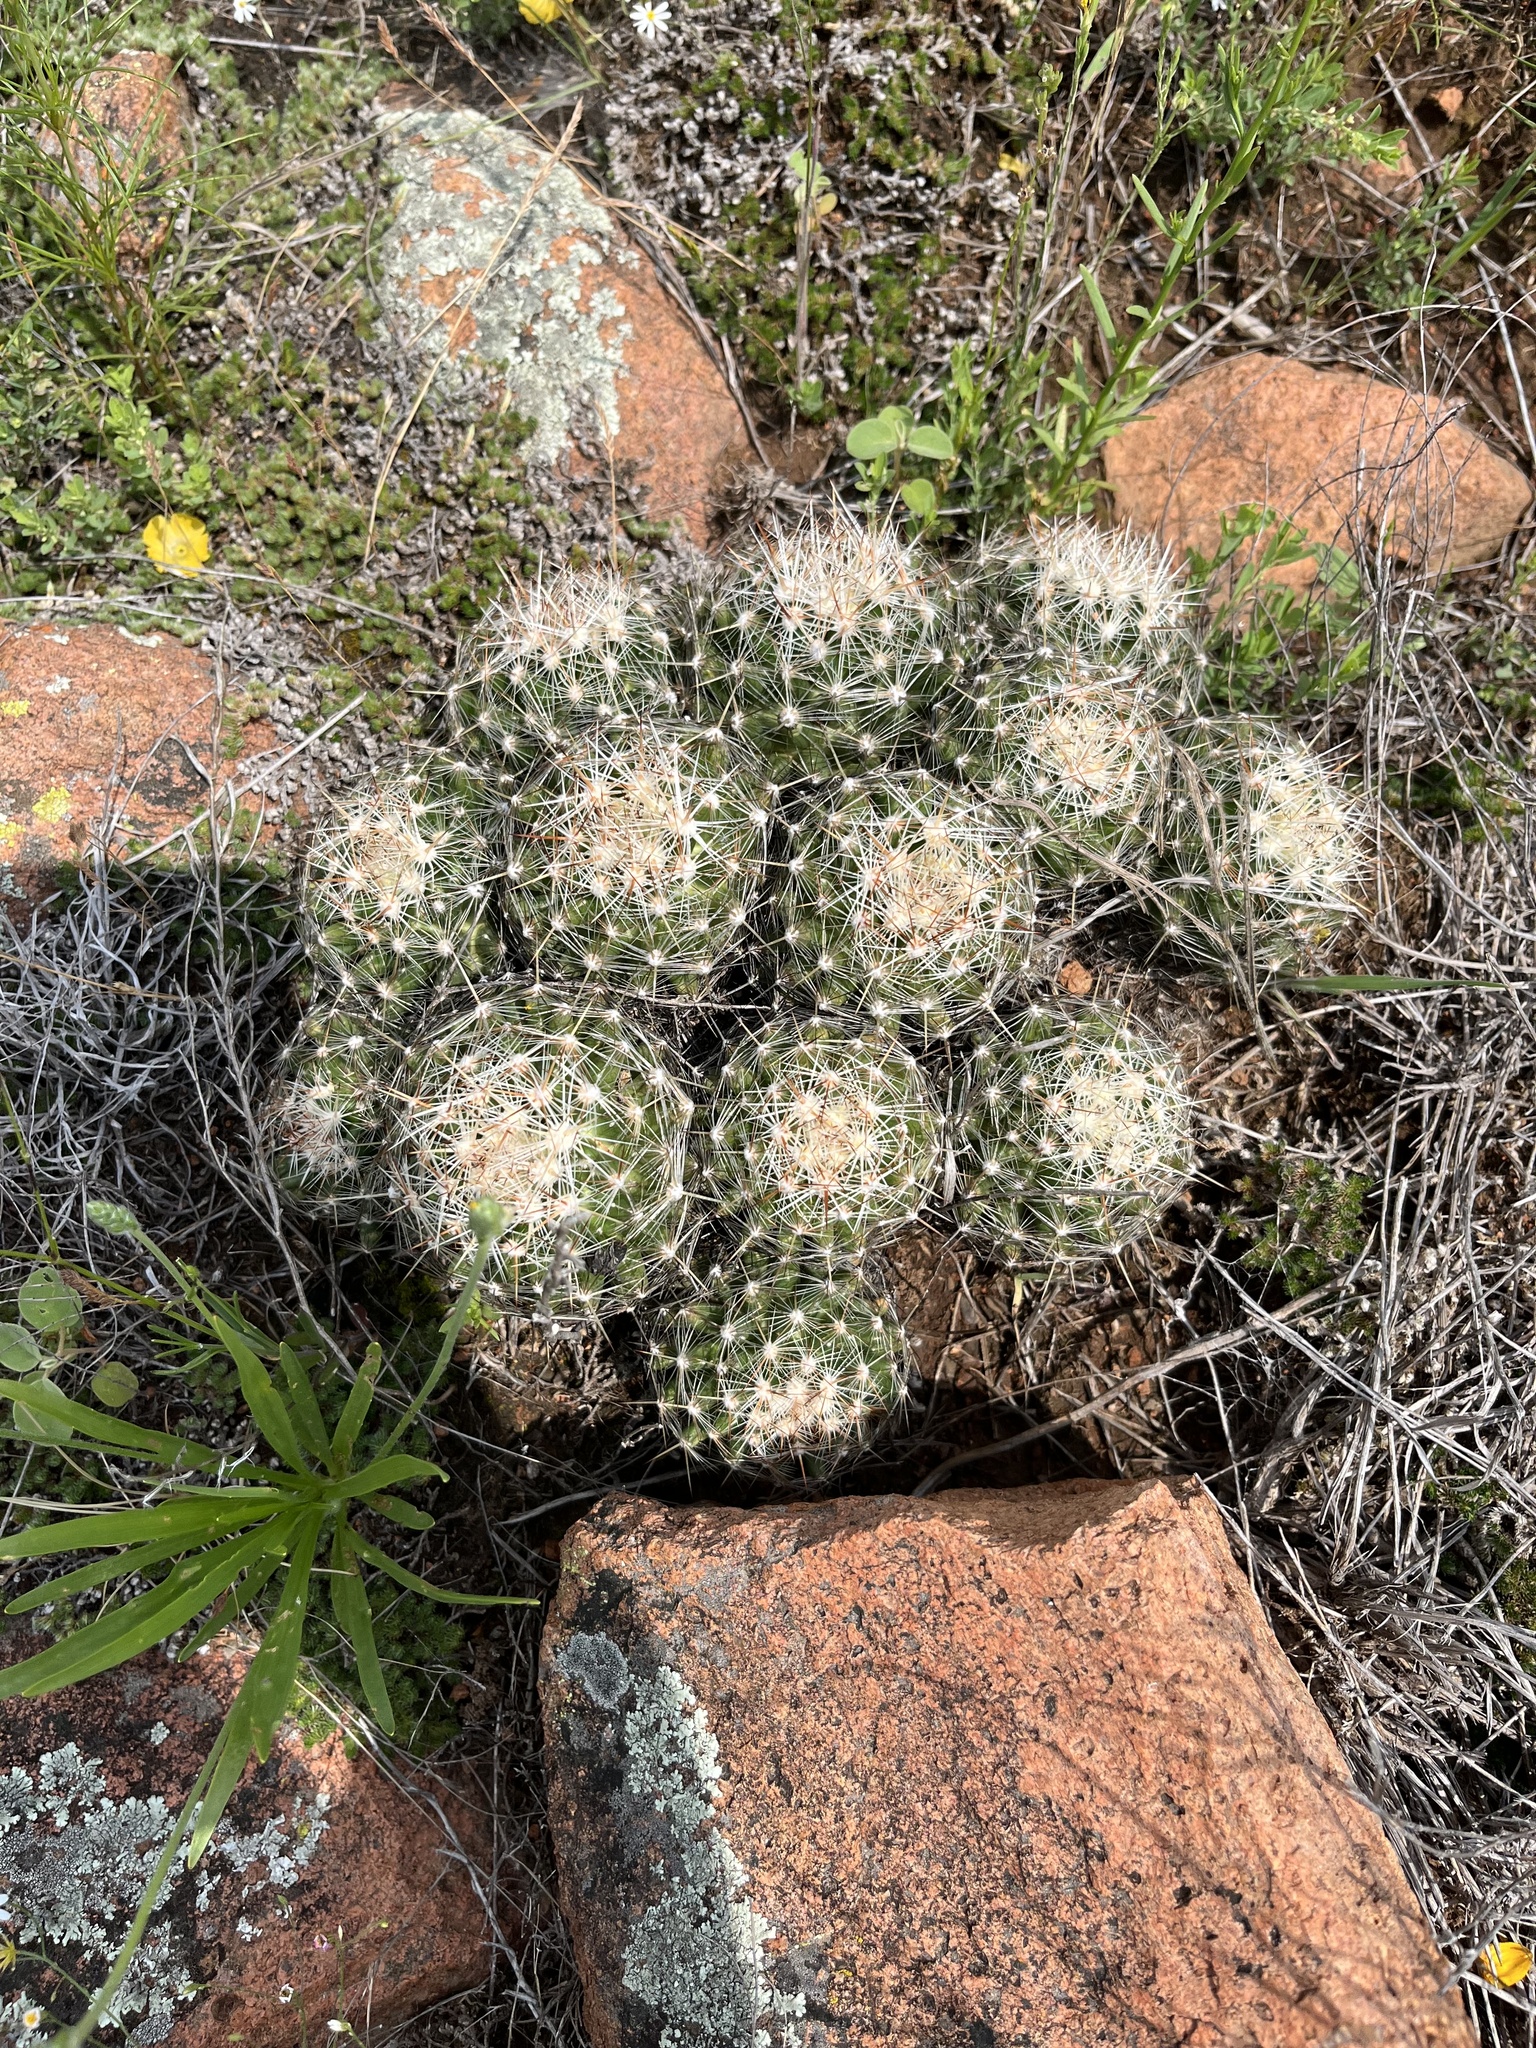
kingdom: Plantae
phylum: Tracheophyta
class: Magnoliopsida
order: Caryophyllales
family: Cactaceae
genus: Pelecyphora
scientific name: Pelecyphora vivipara
